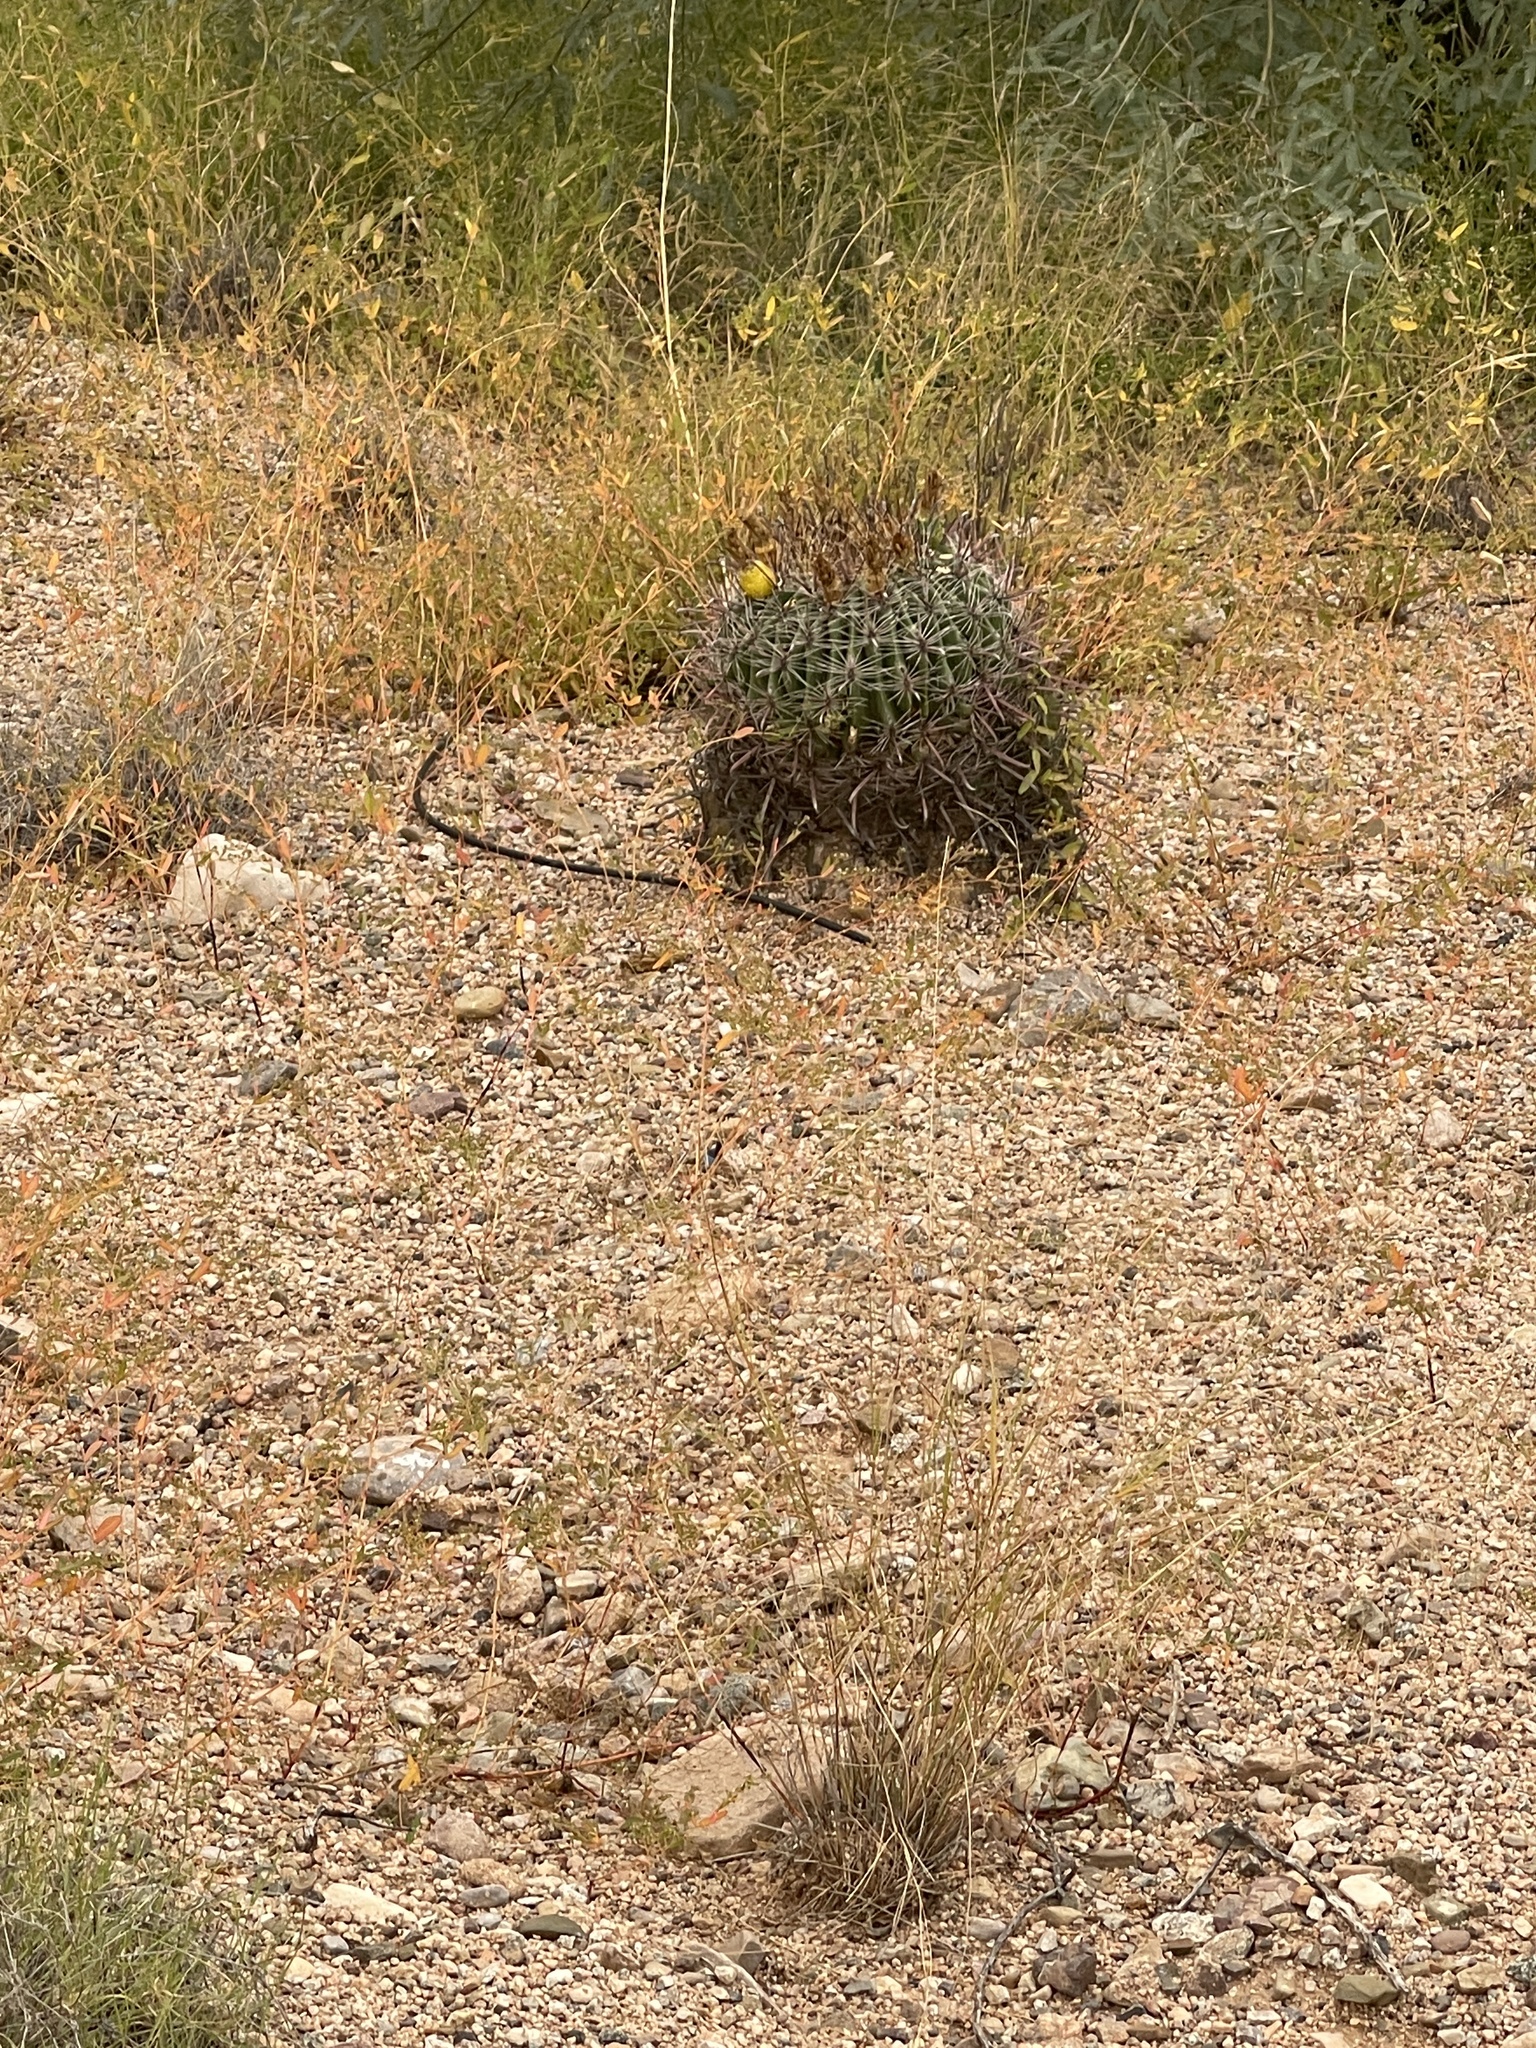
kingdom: Plantae
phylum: Tracheophyta
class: Magnoliopsida
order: Caryophyllales
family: Cactaceae
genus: Ferocactus
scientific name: Ferocactus wislizeni
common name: Candy barrel cactus
